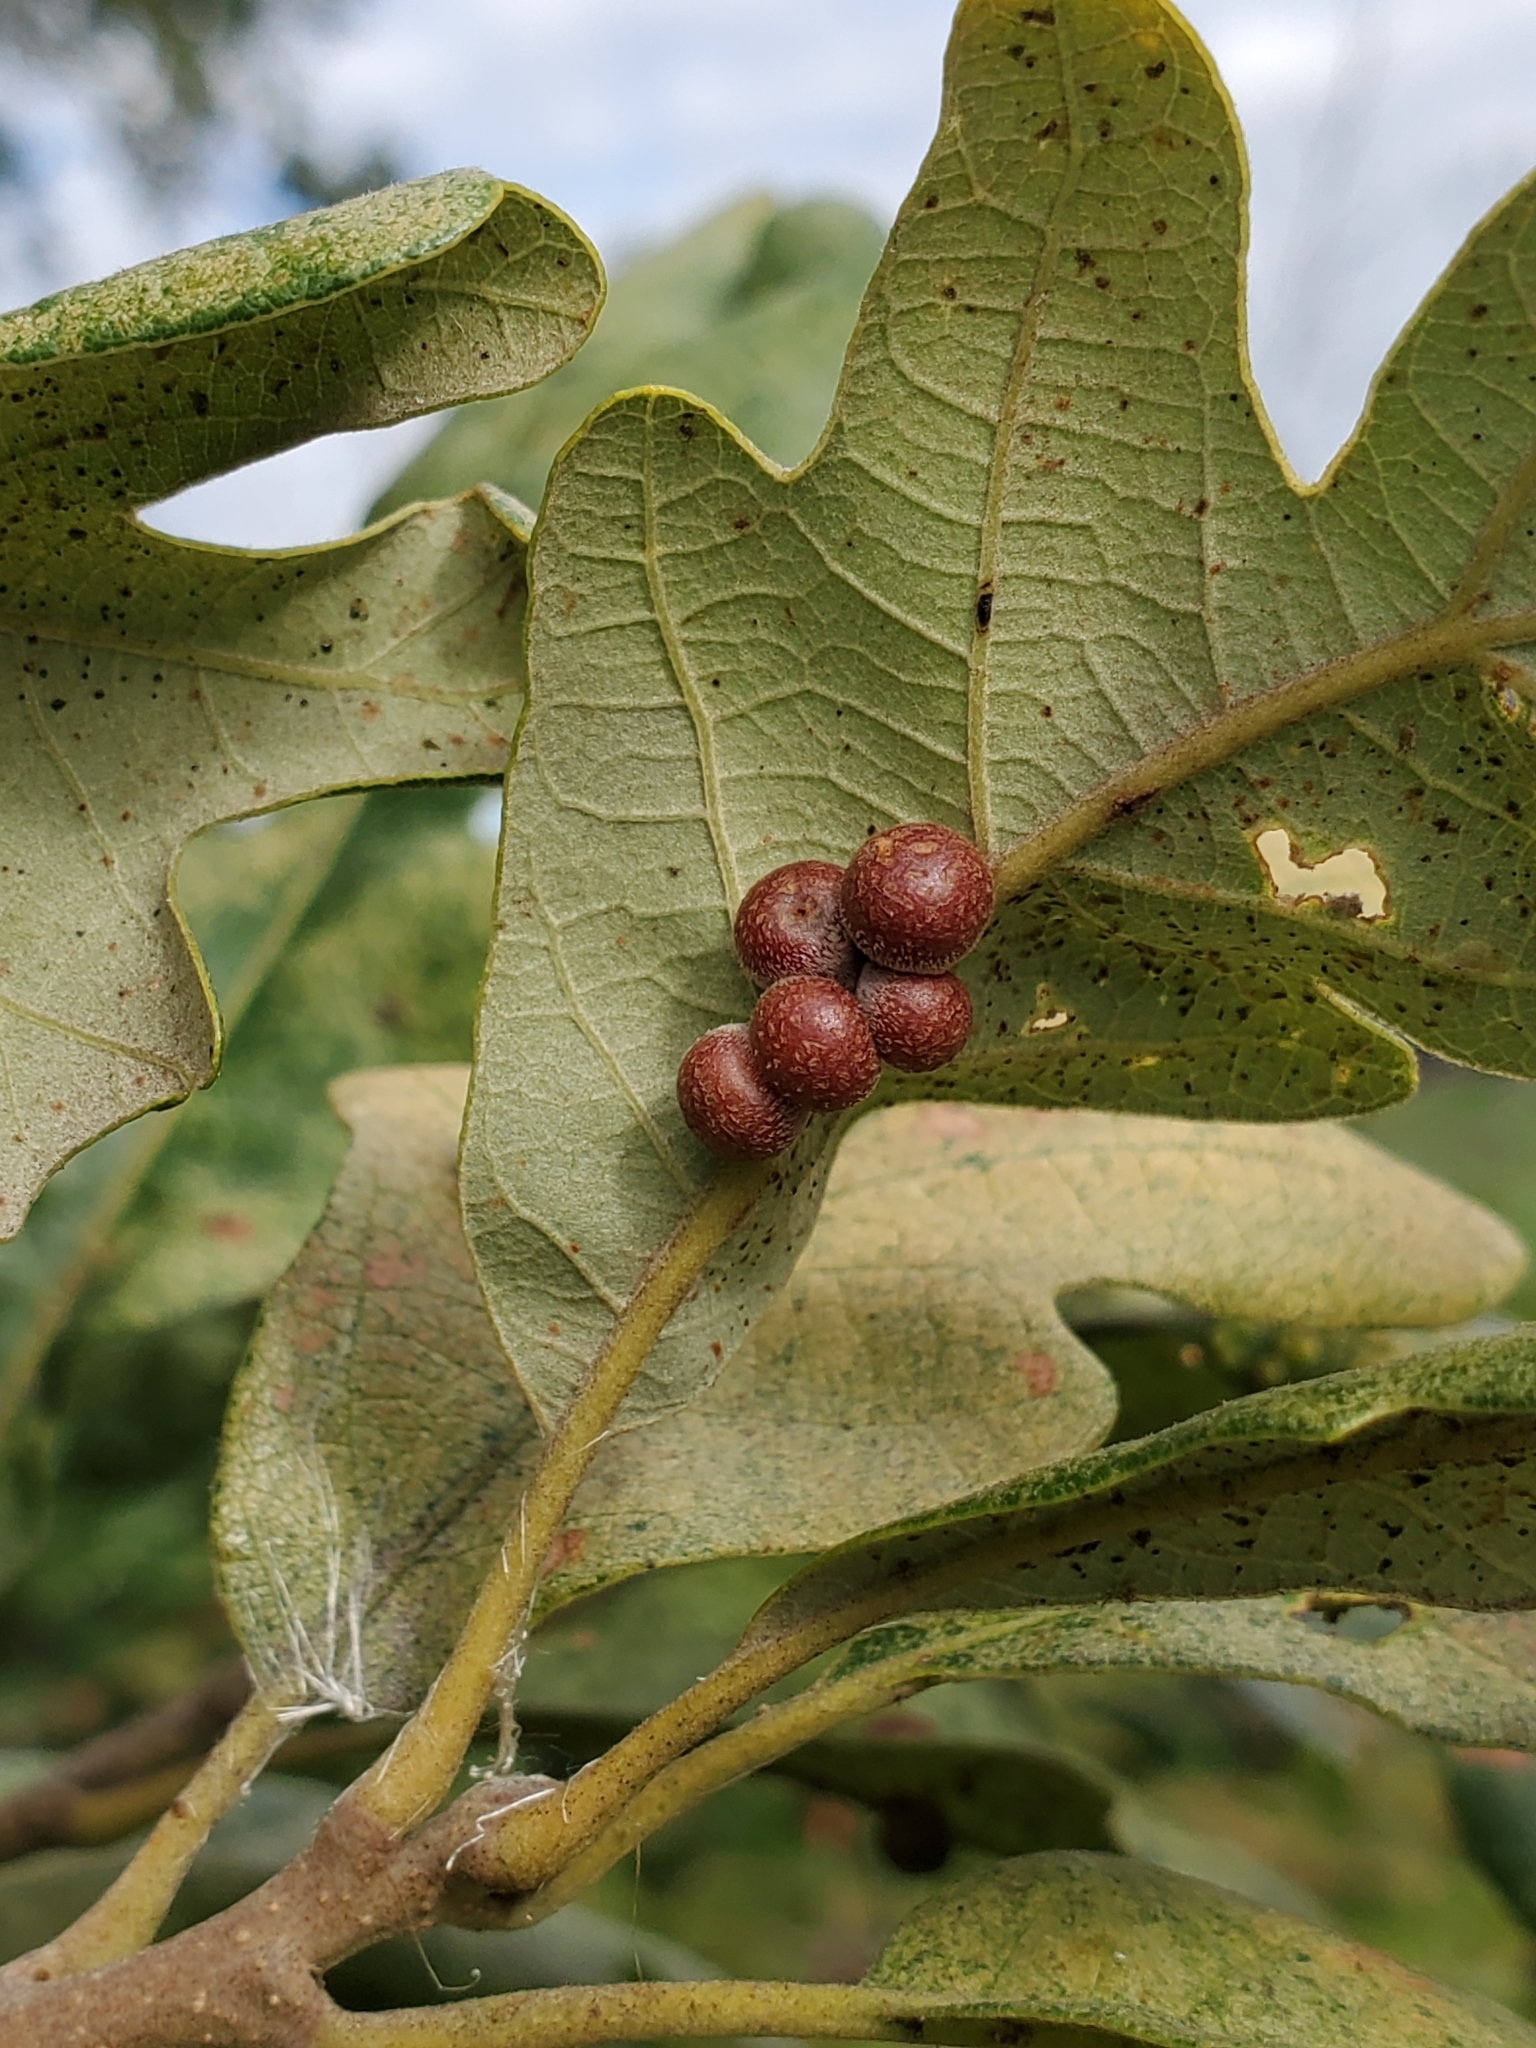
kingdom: Animalia
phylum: Arthropoda
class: Insecta
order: Hymenoptera
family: Cynipidae
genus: Andricus
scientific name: Andricus
